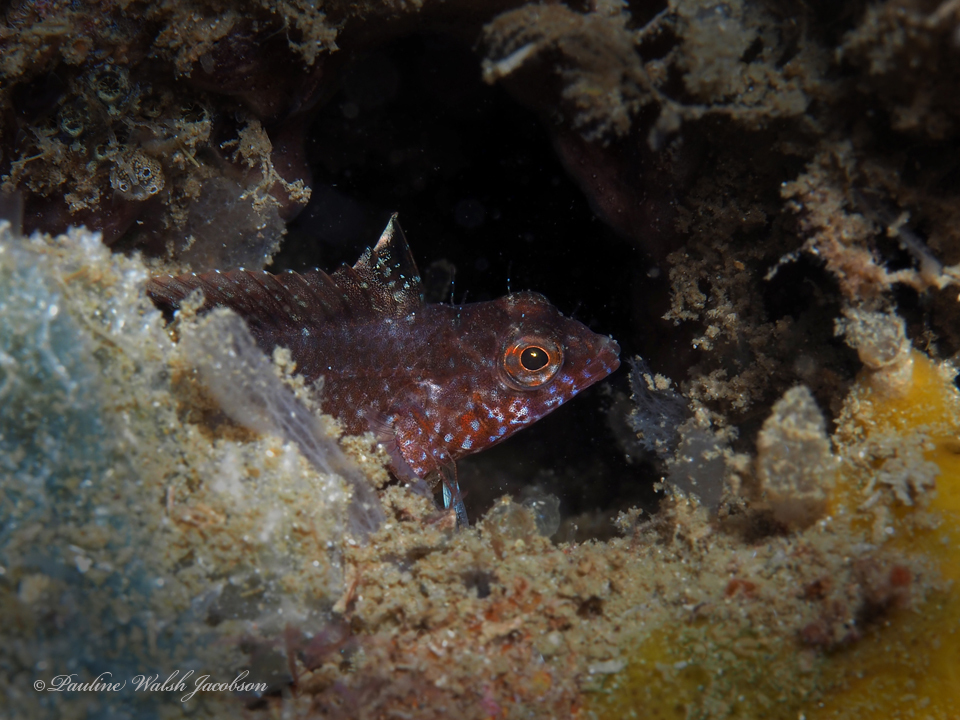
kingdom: Animalia
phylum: Chordata
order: Perciformes
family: Labrisomidae
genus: Malacoctenus
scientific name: Malacoctenus macropus
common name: Rosy blenny
